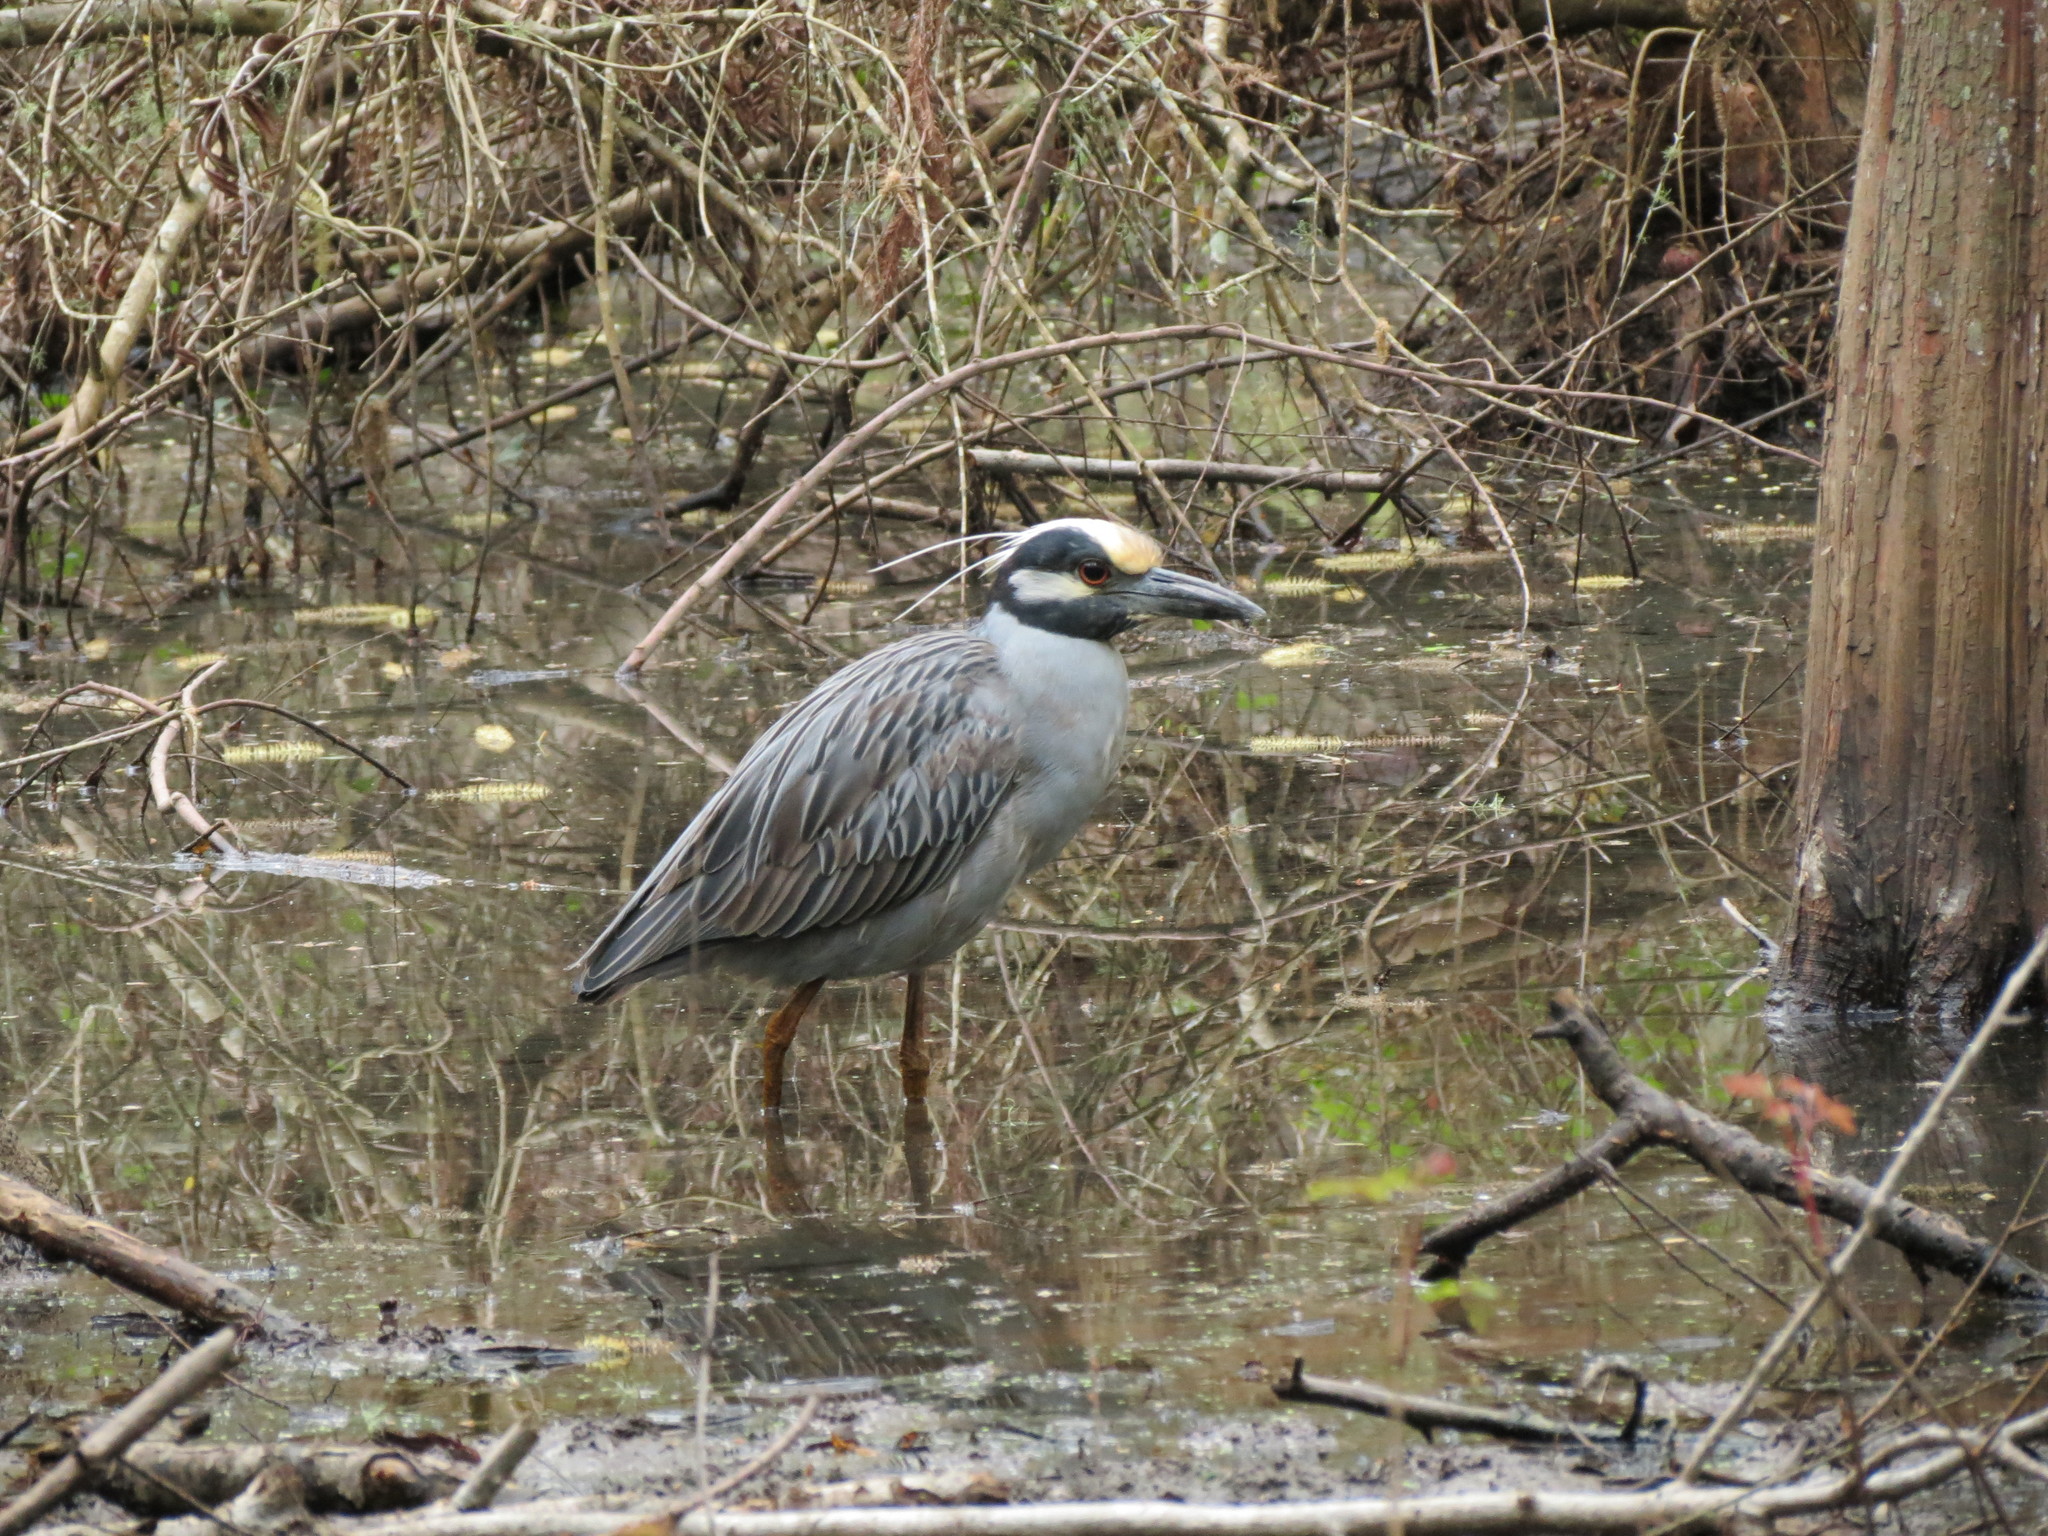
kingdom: Animalia
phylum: Chordata
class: Aves
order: Pelecaniformes
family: Ardeidae
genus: Nyctanassa
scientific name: Nyctanassa violacea
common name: Yellow-crowned night heron
